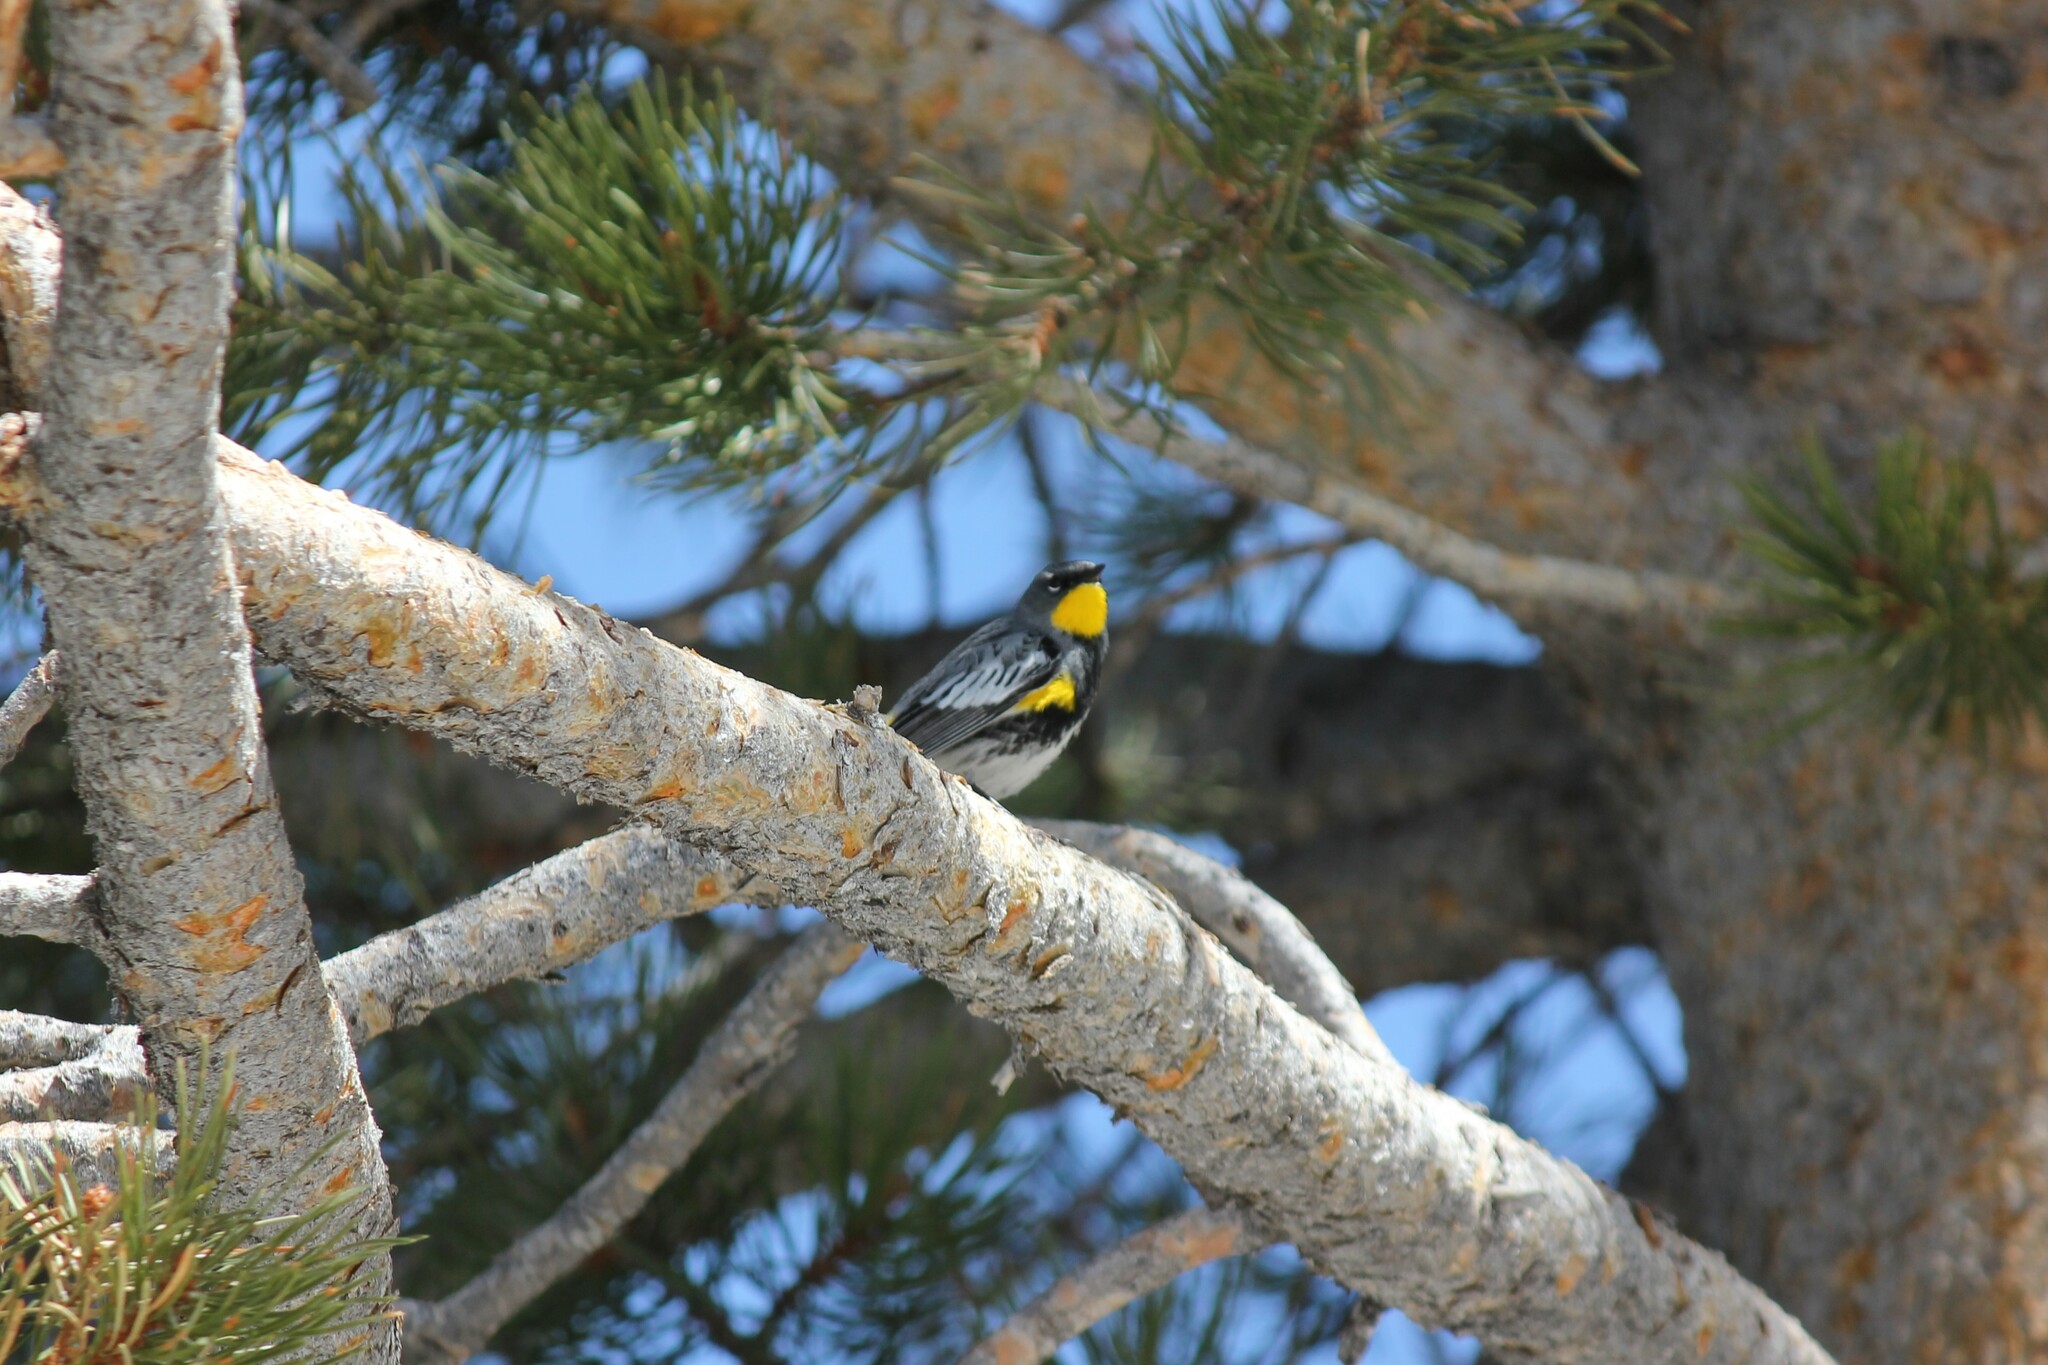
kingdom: Animalia
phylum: Chordata
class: Aves
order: Passeriformes
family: Parulidae
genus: Setophaga
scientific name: Setophaga coronata
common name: Myrtle warbler
